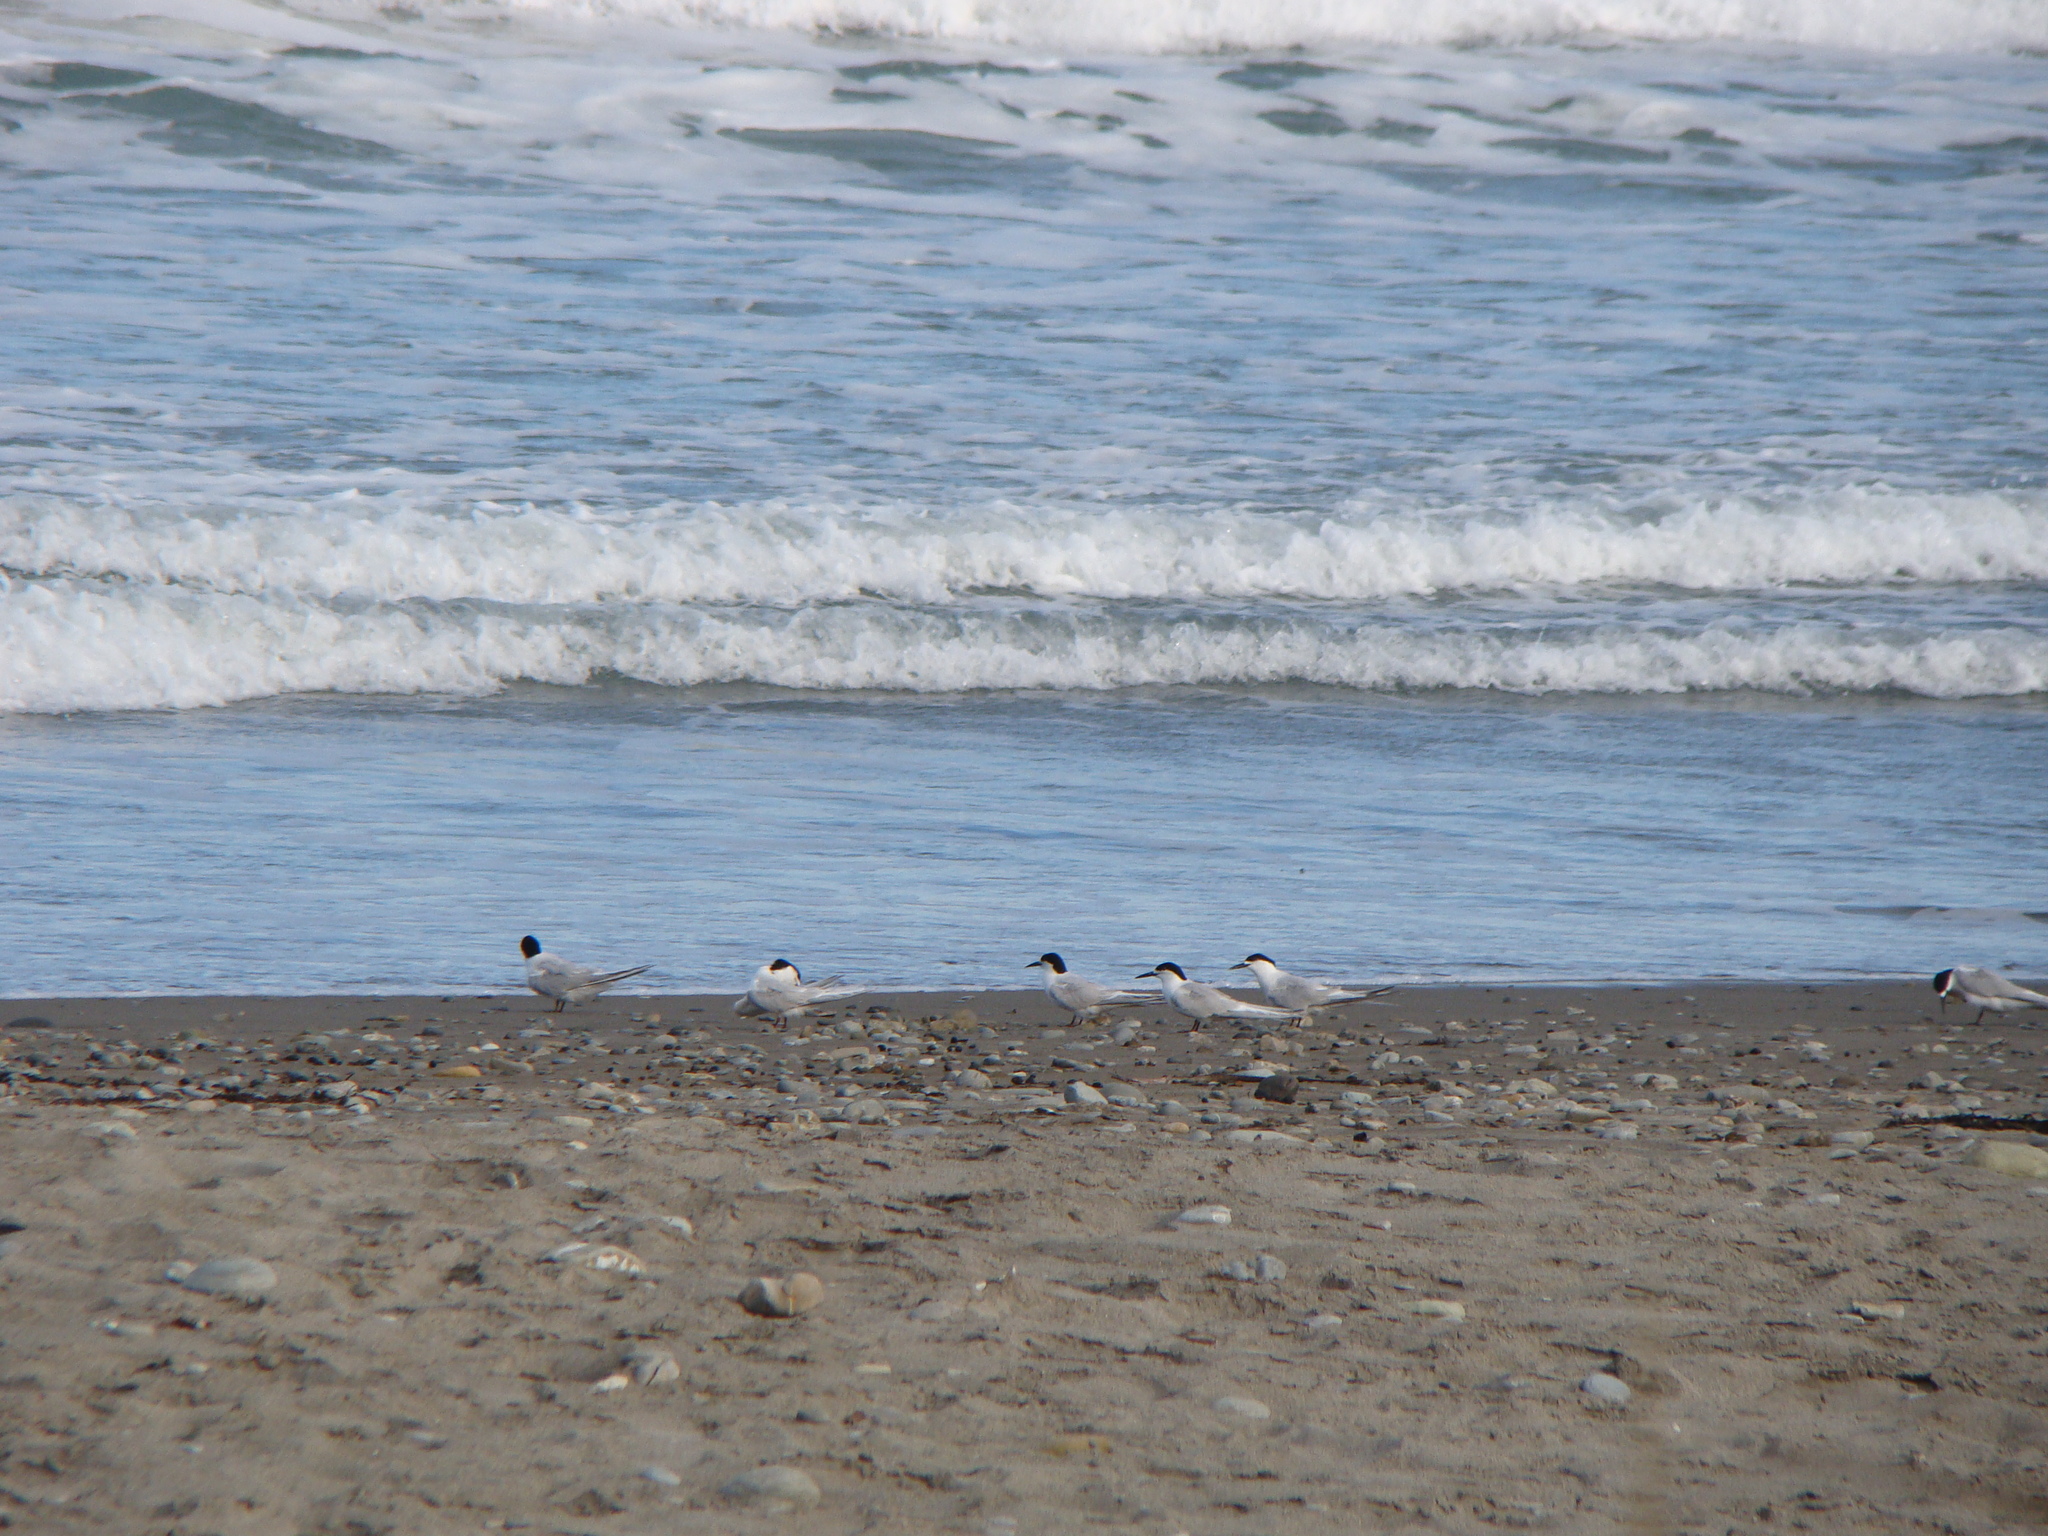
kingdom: Animalia
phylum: Chordata
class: Aves
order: Charadriiformes
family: Laridae
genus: Sterna
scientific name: Sterna striata
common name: White-fronted tern
